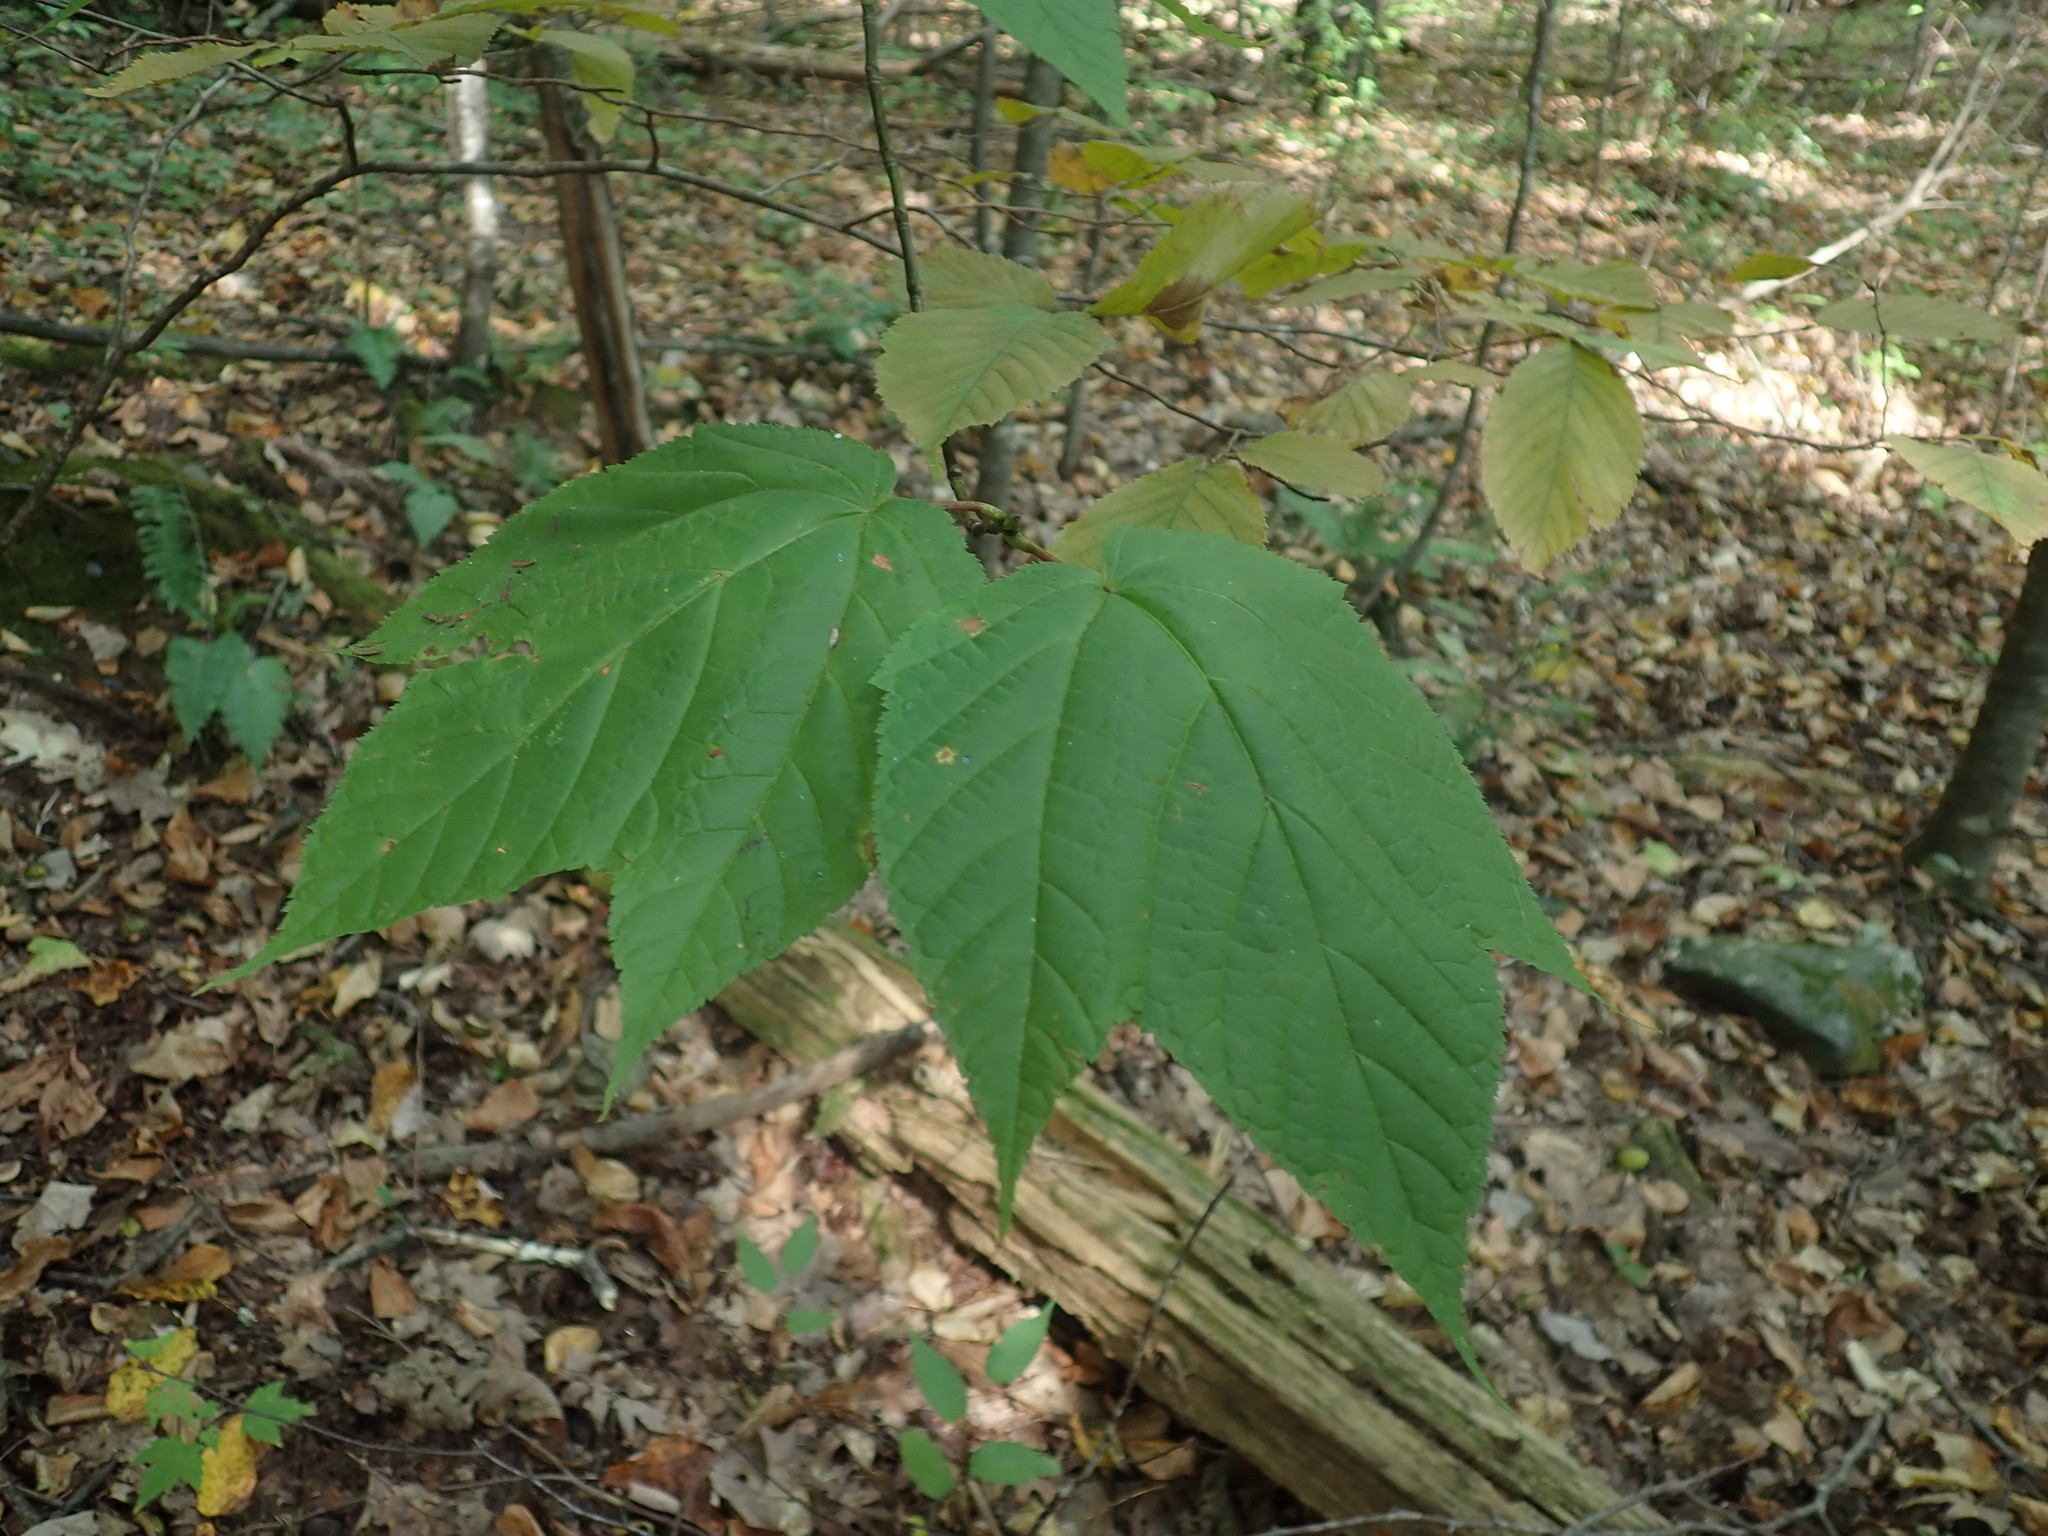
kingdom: Plantae
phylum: Tracheophyta
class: Magnoliopsida
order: Sapindales
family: Sapindaceae
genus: Acer
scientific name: Acer pensylvanicum
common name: Moosewood
